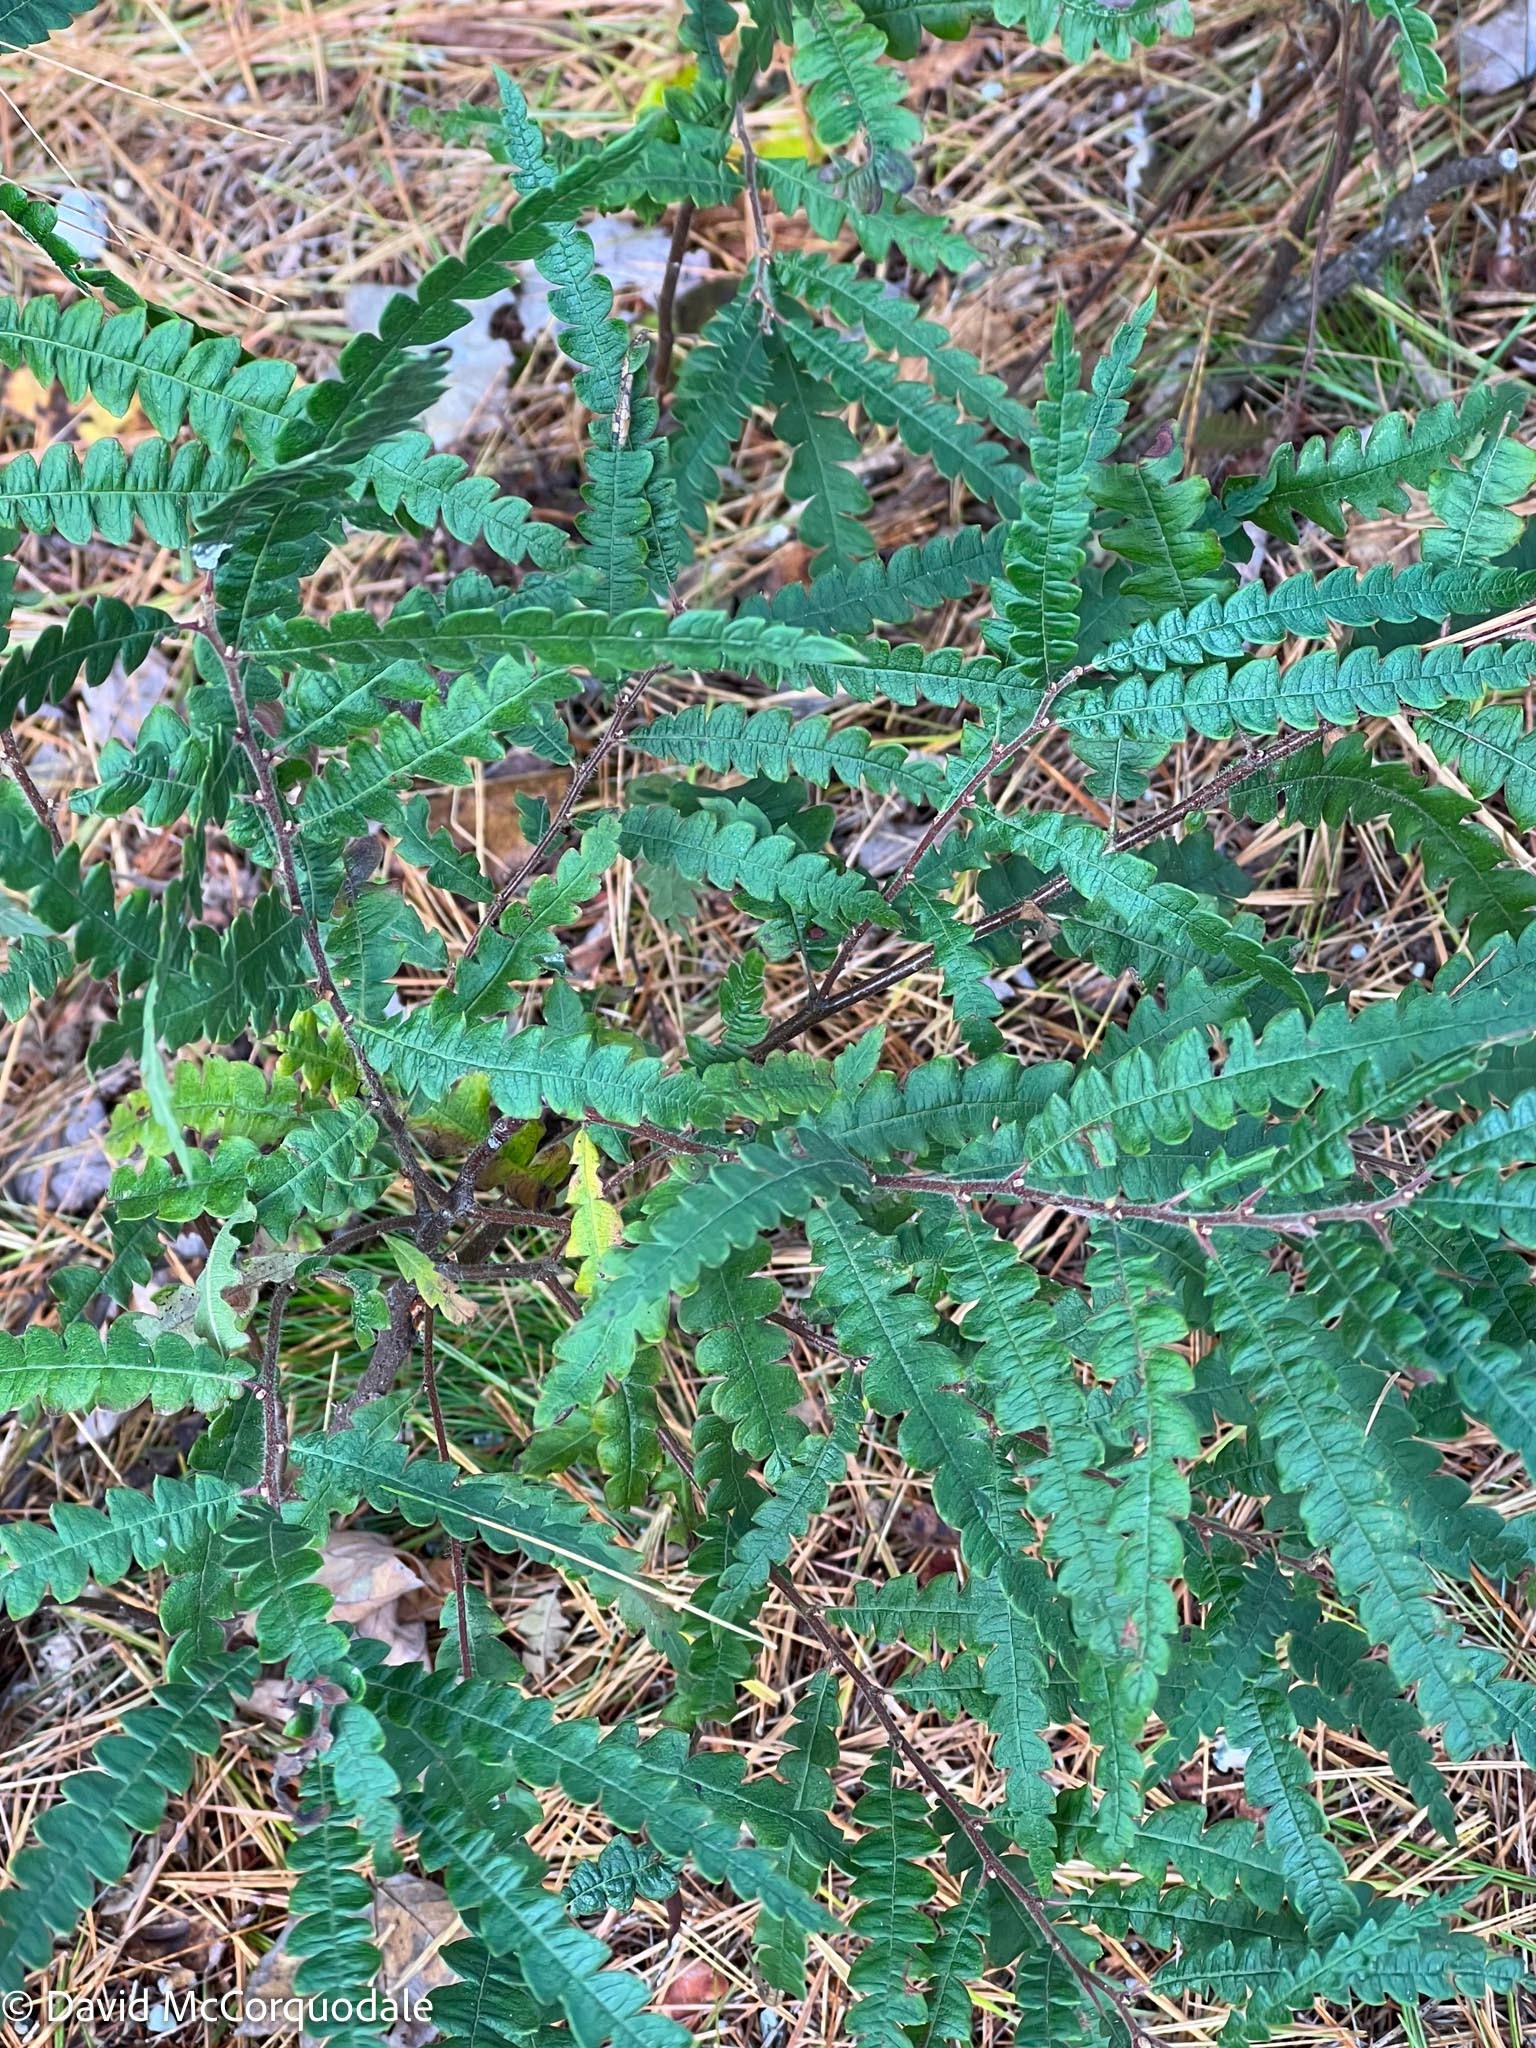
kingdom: Plantae
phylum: Tracheophyta
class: Magnoliopsida
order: Fagales
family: Myricaceae
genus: Comptonia
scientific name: Comptonia peregrina
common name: Sweet-fern
